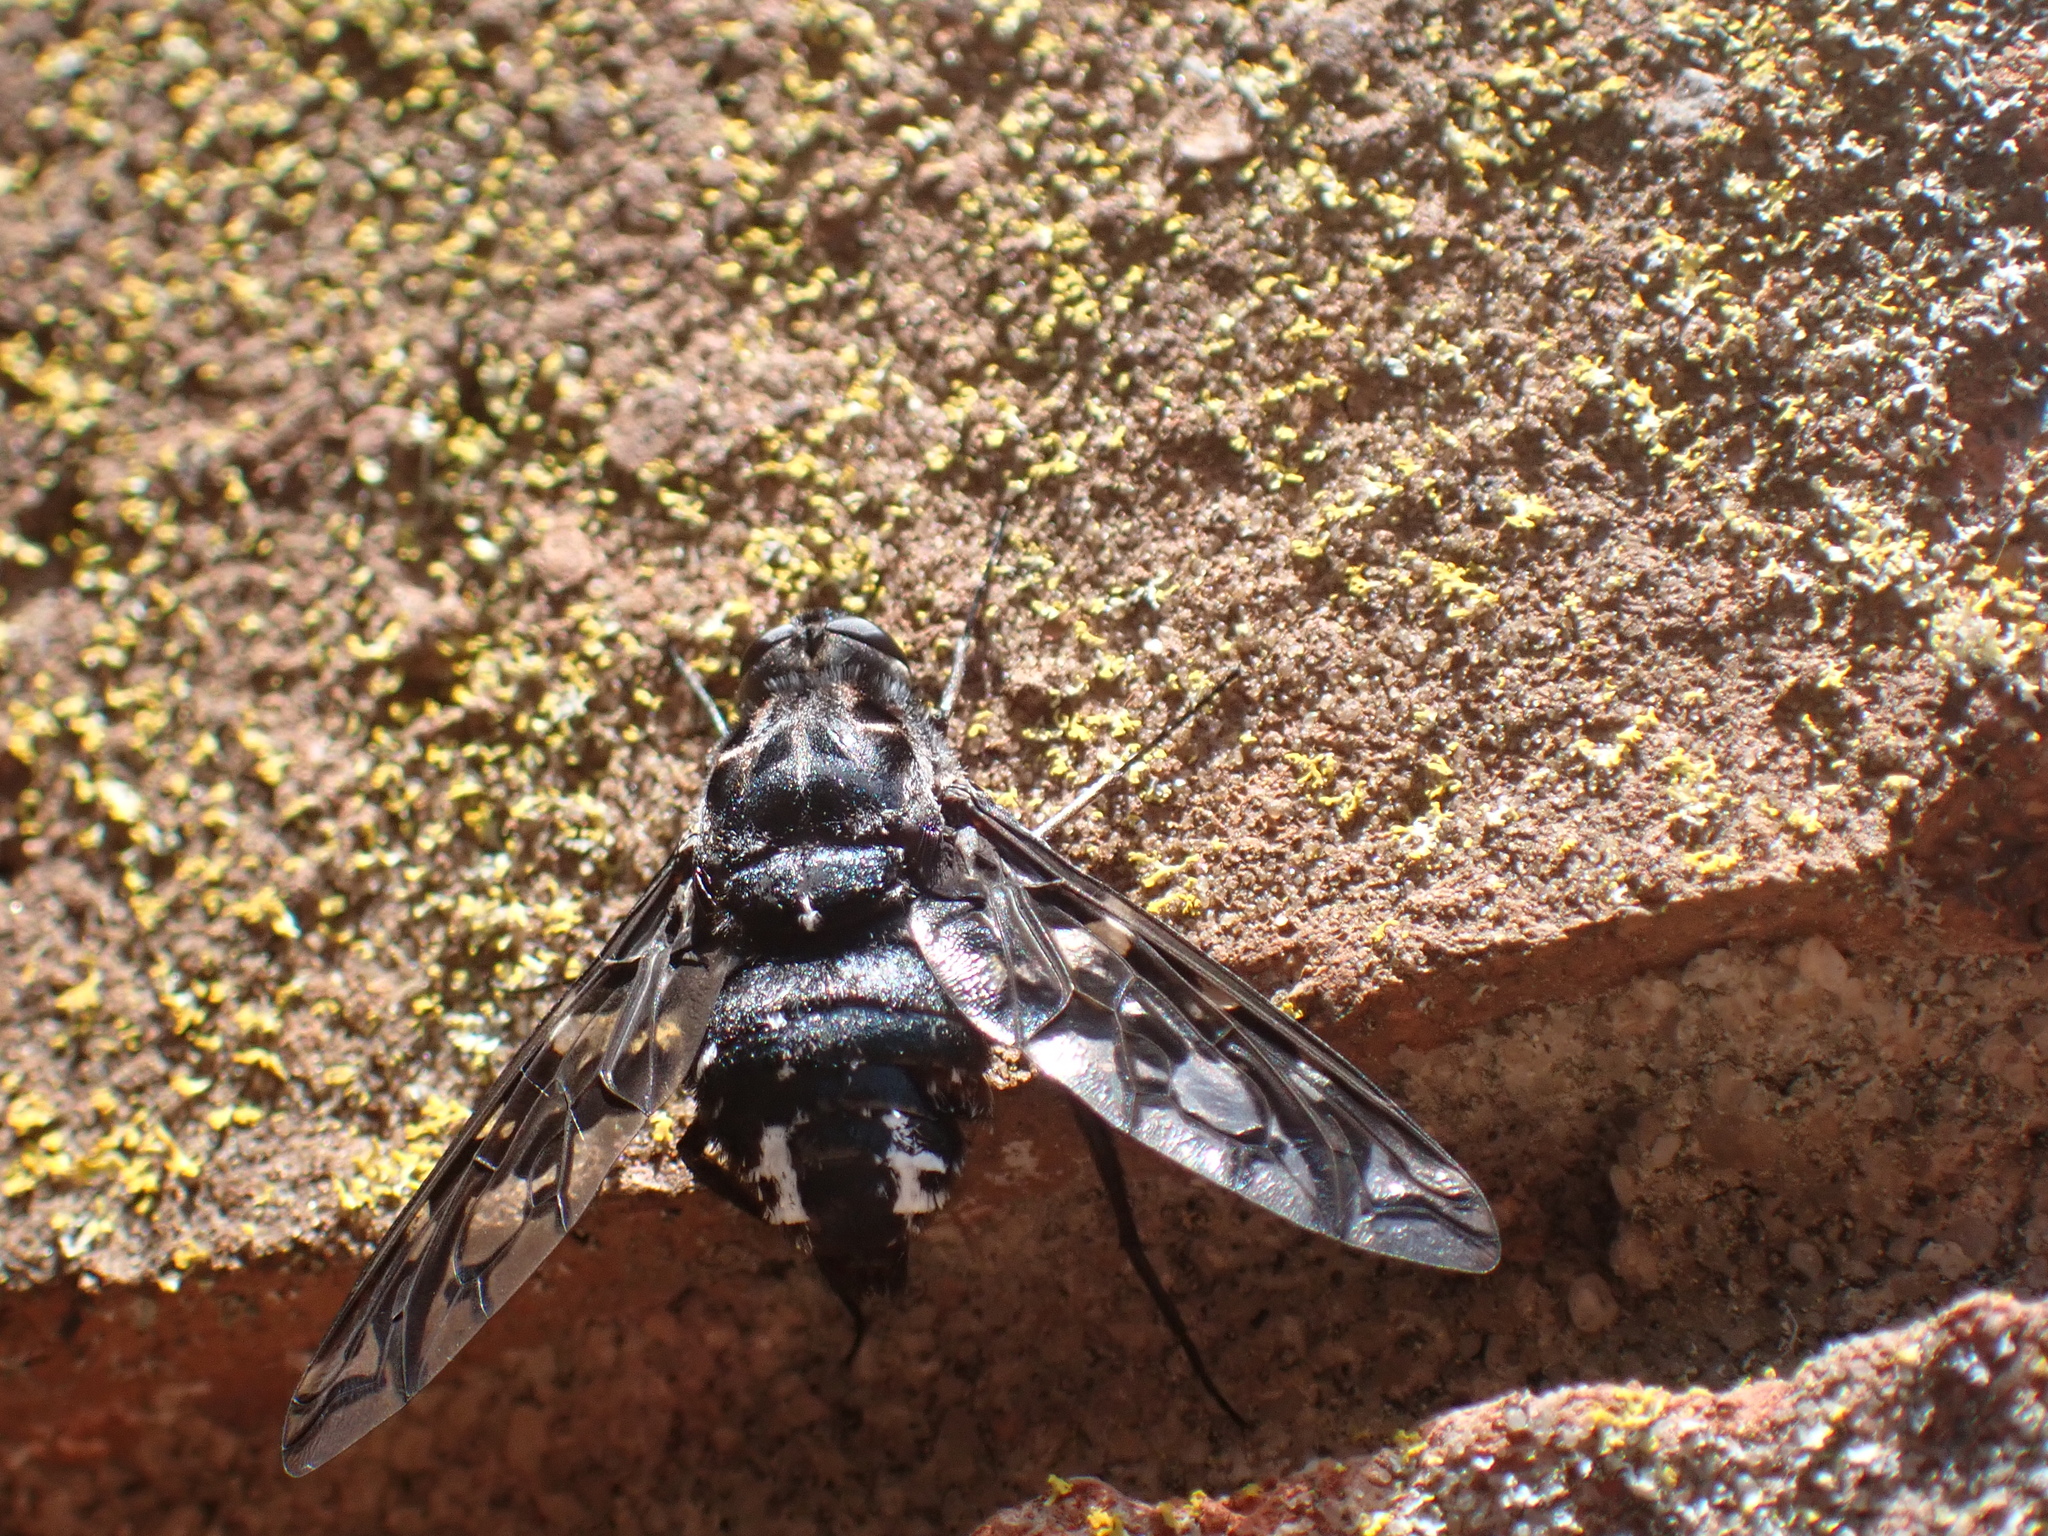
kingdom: Animalia
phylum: Arthropoda
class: Insecta
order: Diptera
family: Bombyliidae
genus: Xenox
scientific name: Xenox tigrinus
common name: Tiger bee fly
